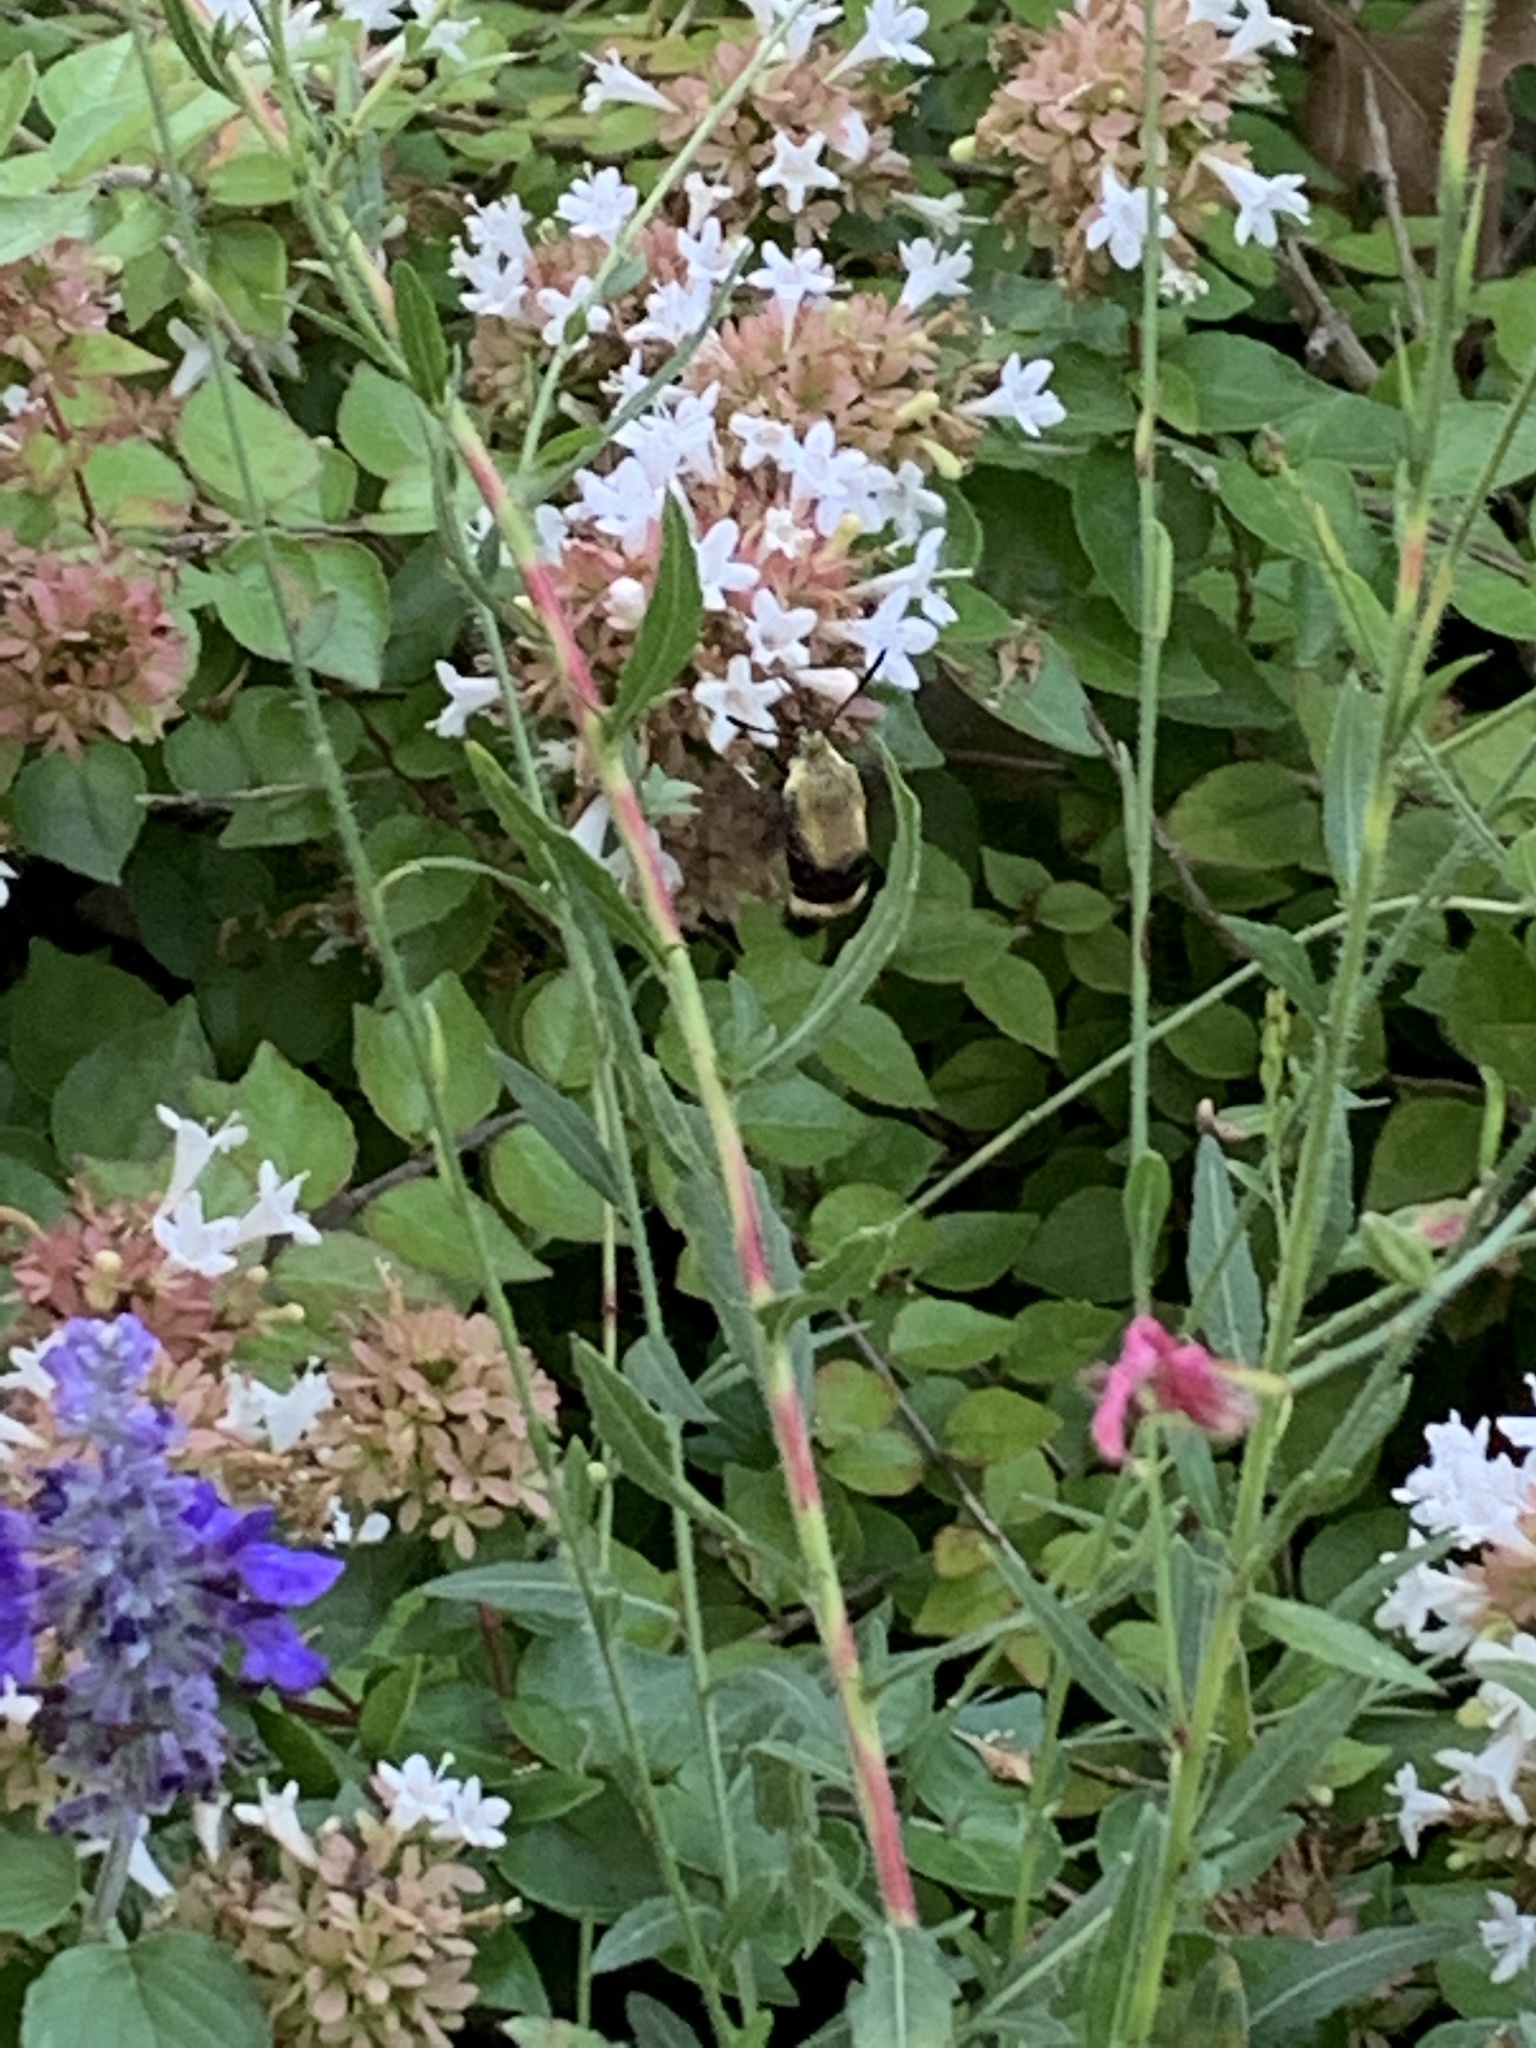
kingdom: Animalia
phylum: Arthropoda
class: Insecta
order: Lepidoptera
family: Sphingidae
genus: Hemaris
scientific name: Hemaris diffinis
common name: Bumblebee moth
